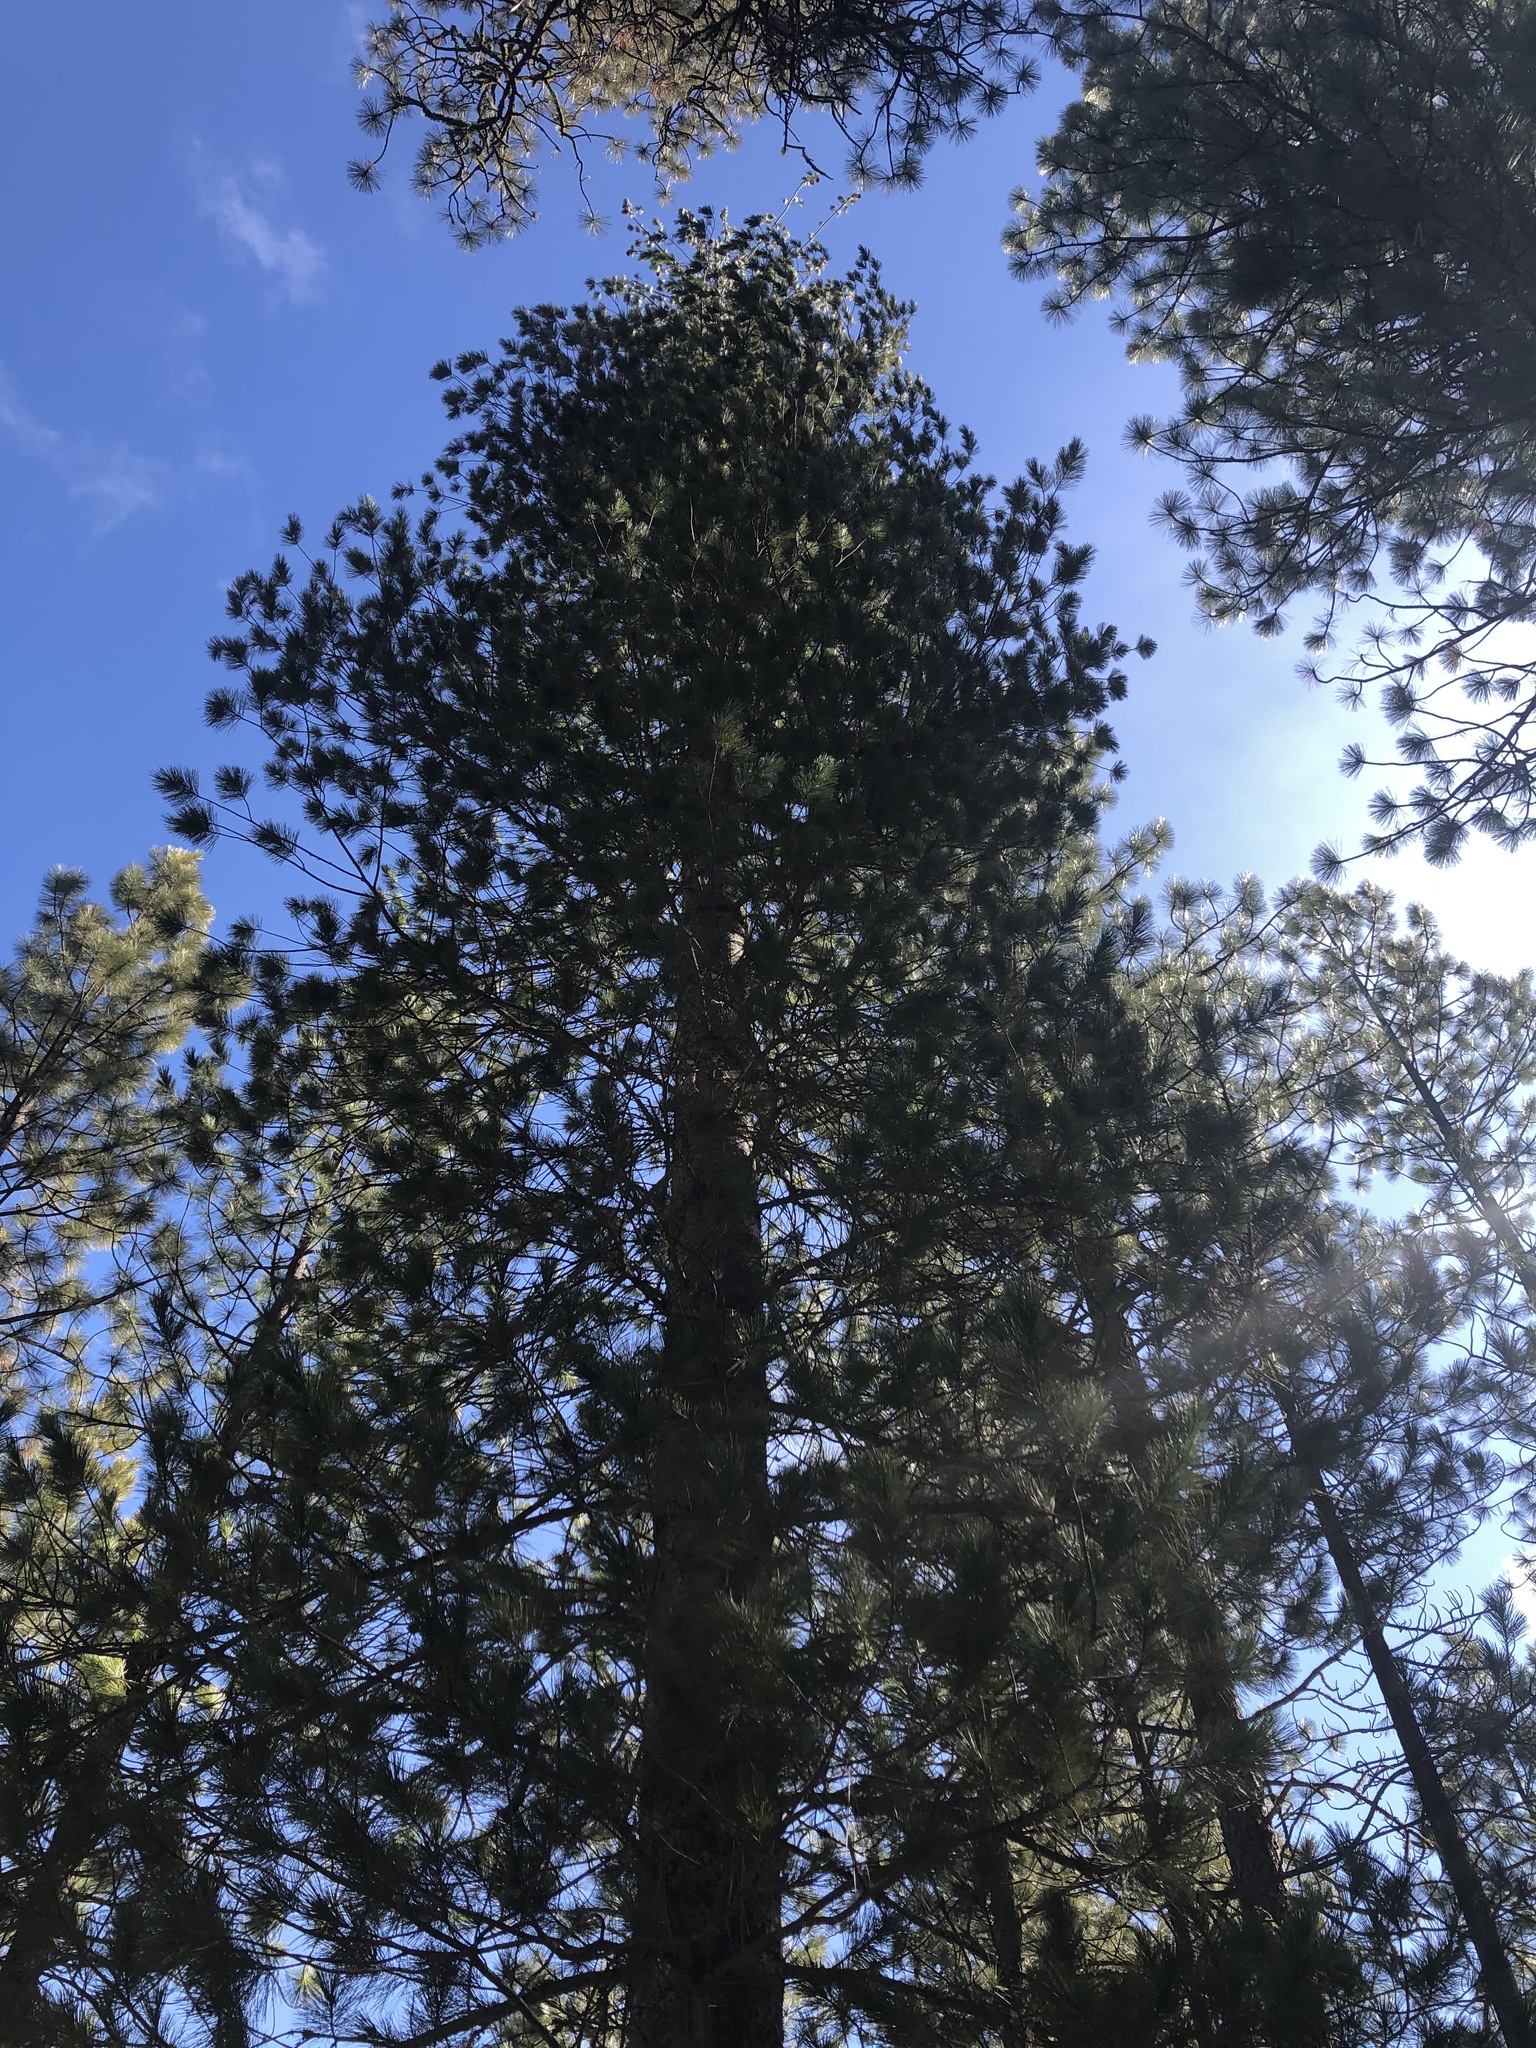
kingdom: Plantae
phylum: Tracheophyta
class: Pinopsida
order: Pinales
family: Pinaceae
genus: Pinus
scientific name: Pinus monticola
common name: Western white pine
